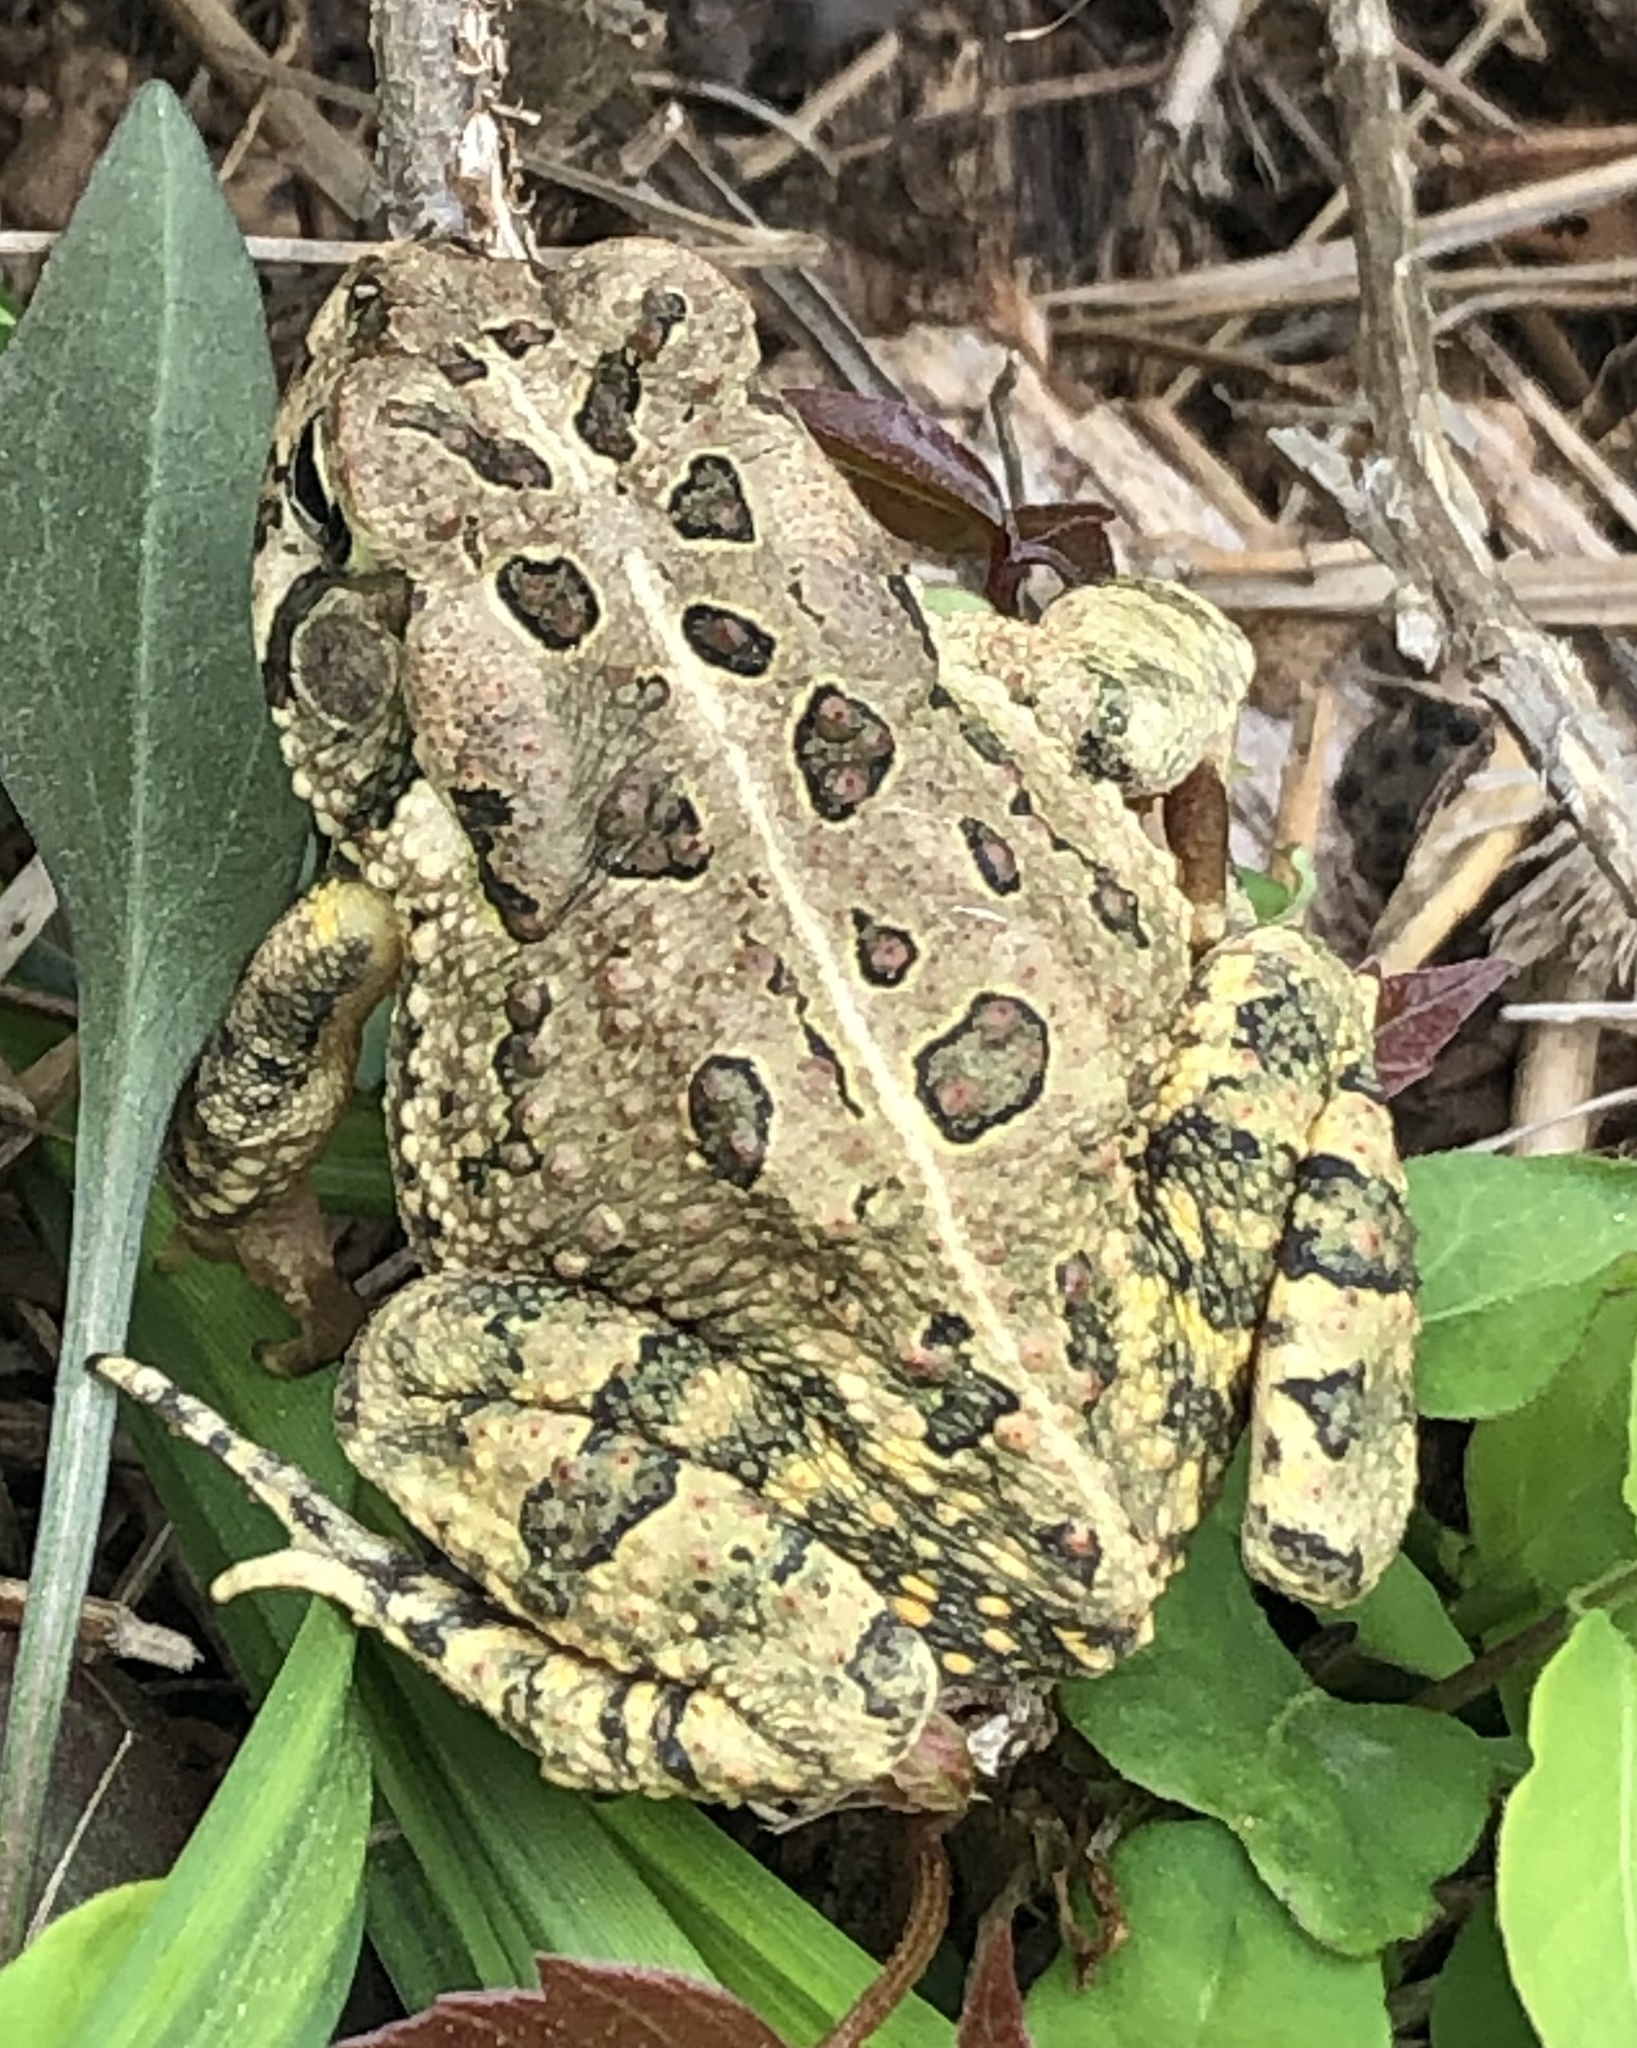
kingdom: Animalia
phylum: Chordata
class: Amphibia
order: Anura
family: Bufonidae
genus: Anaxyrus
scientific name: Anaxyrus fowleri
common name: Fowler's toad
